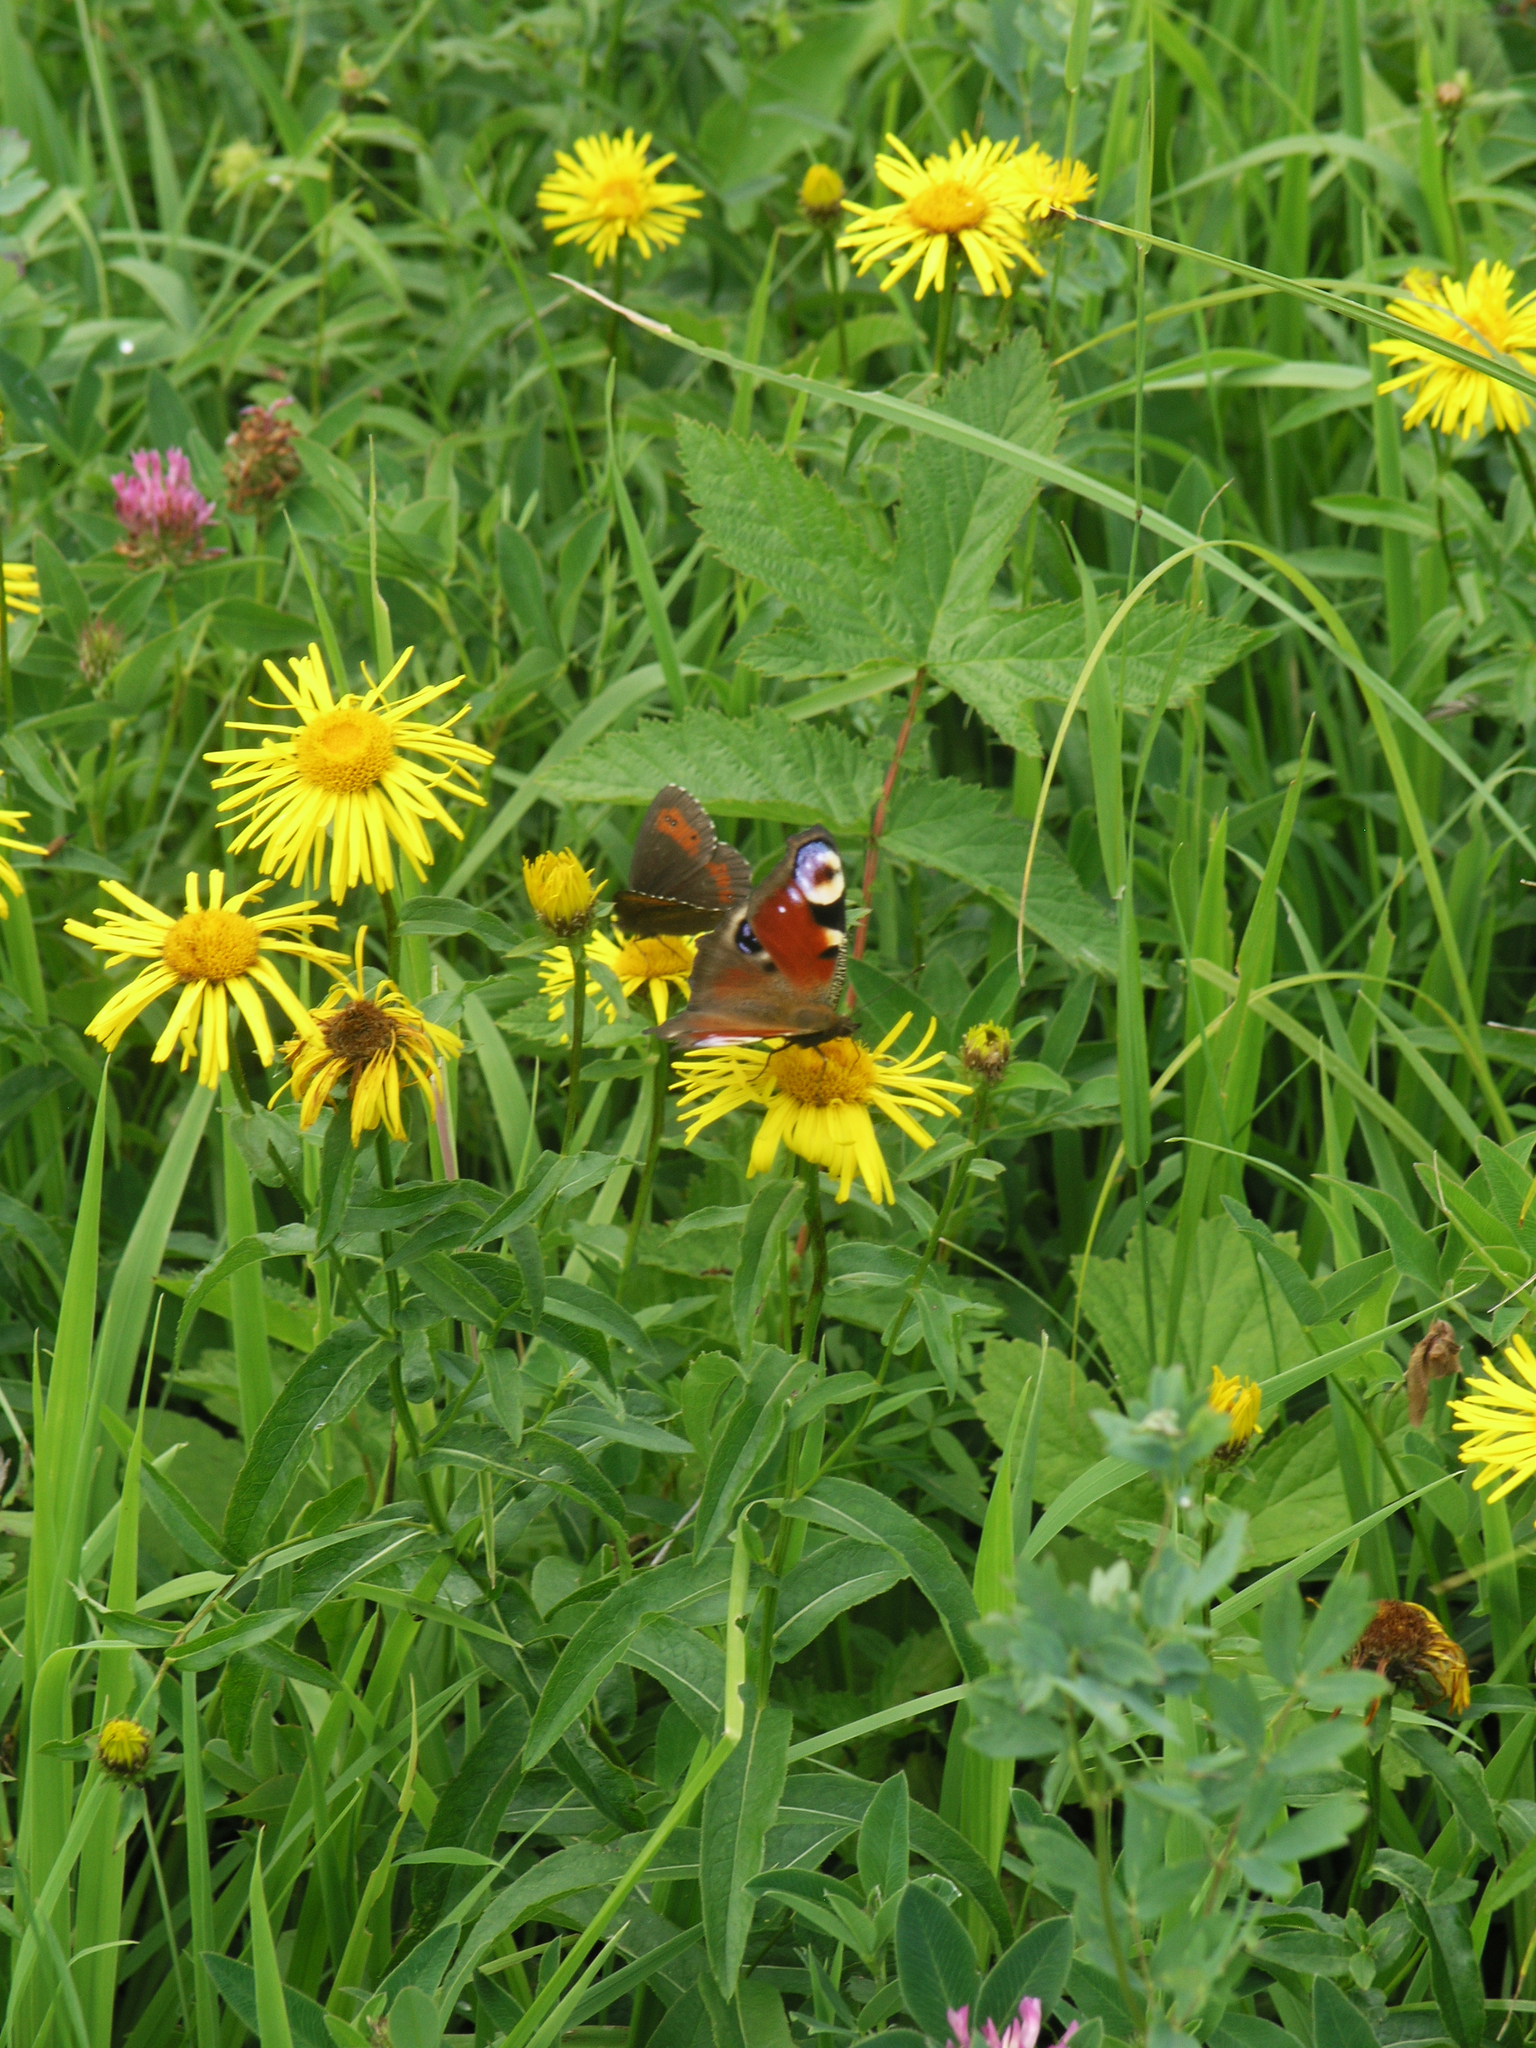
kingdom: Animalia
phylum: Arthropoda
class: Insecta
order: Lepidoptera
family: Nymphalidae
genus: Aglais
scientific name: Aglais io
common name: Peacock
